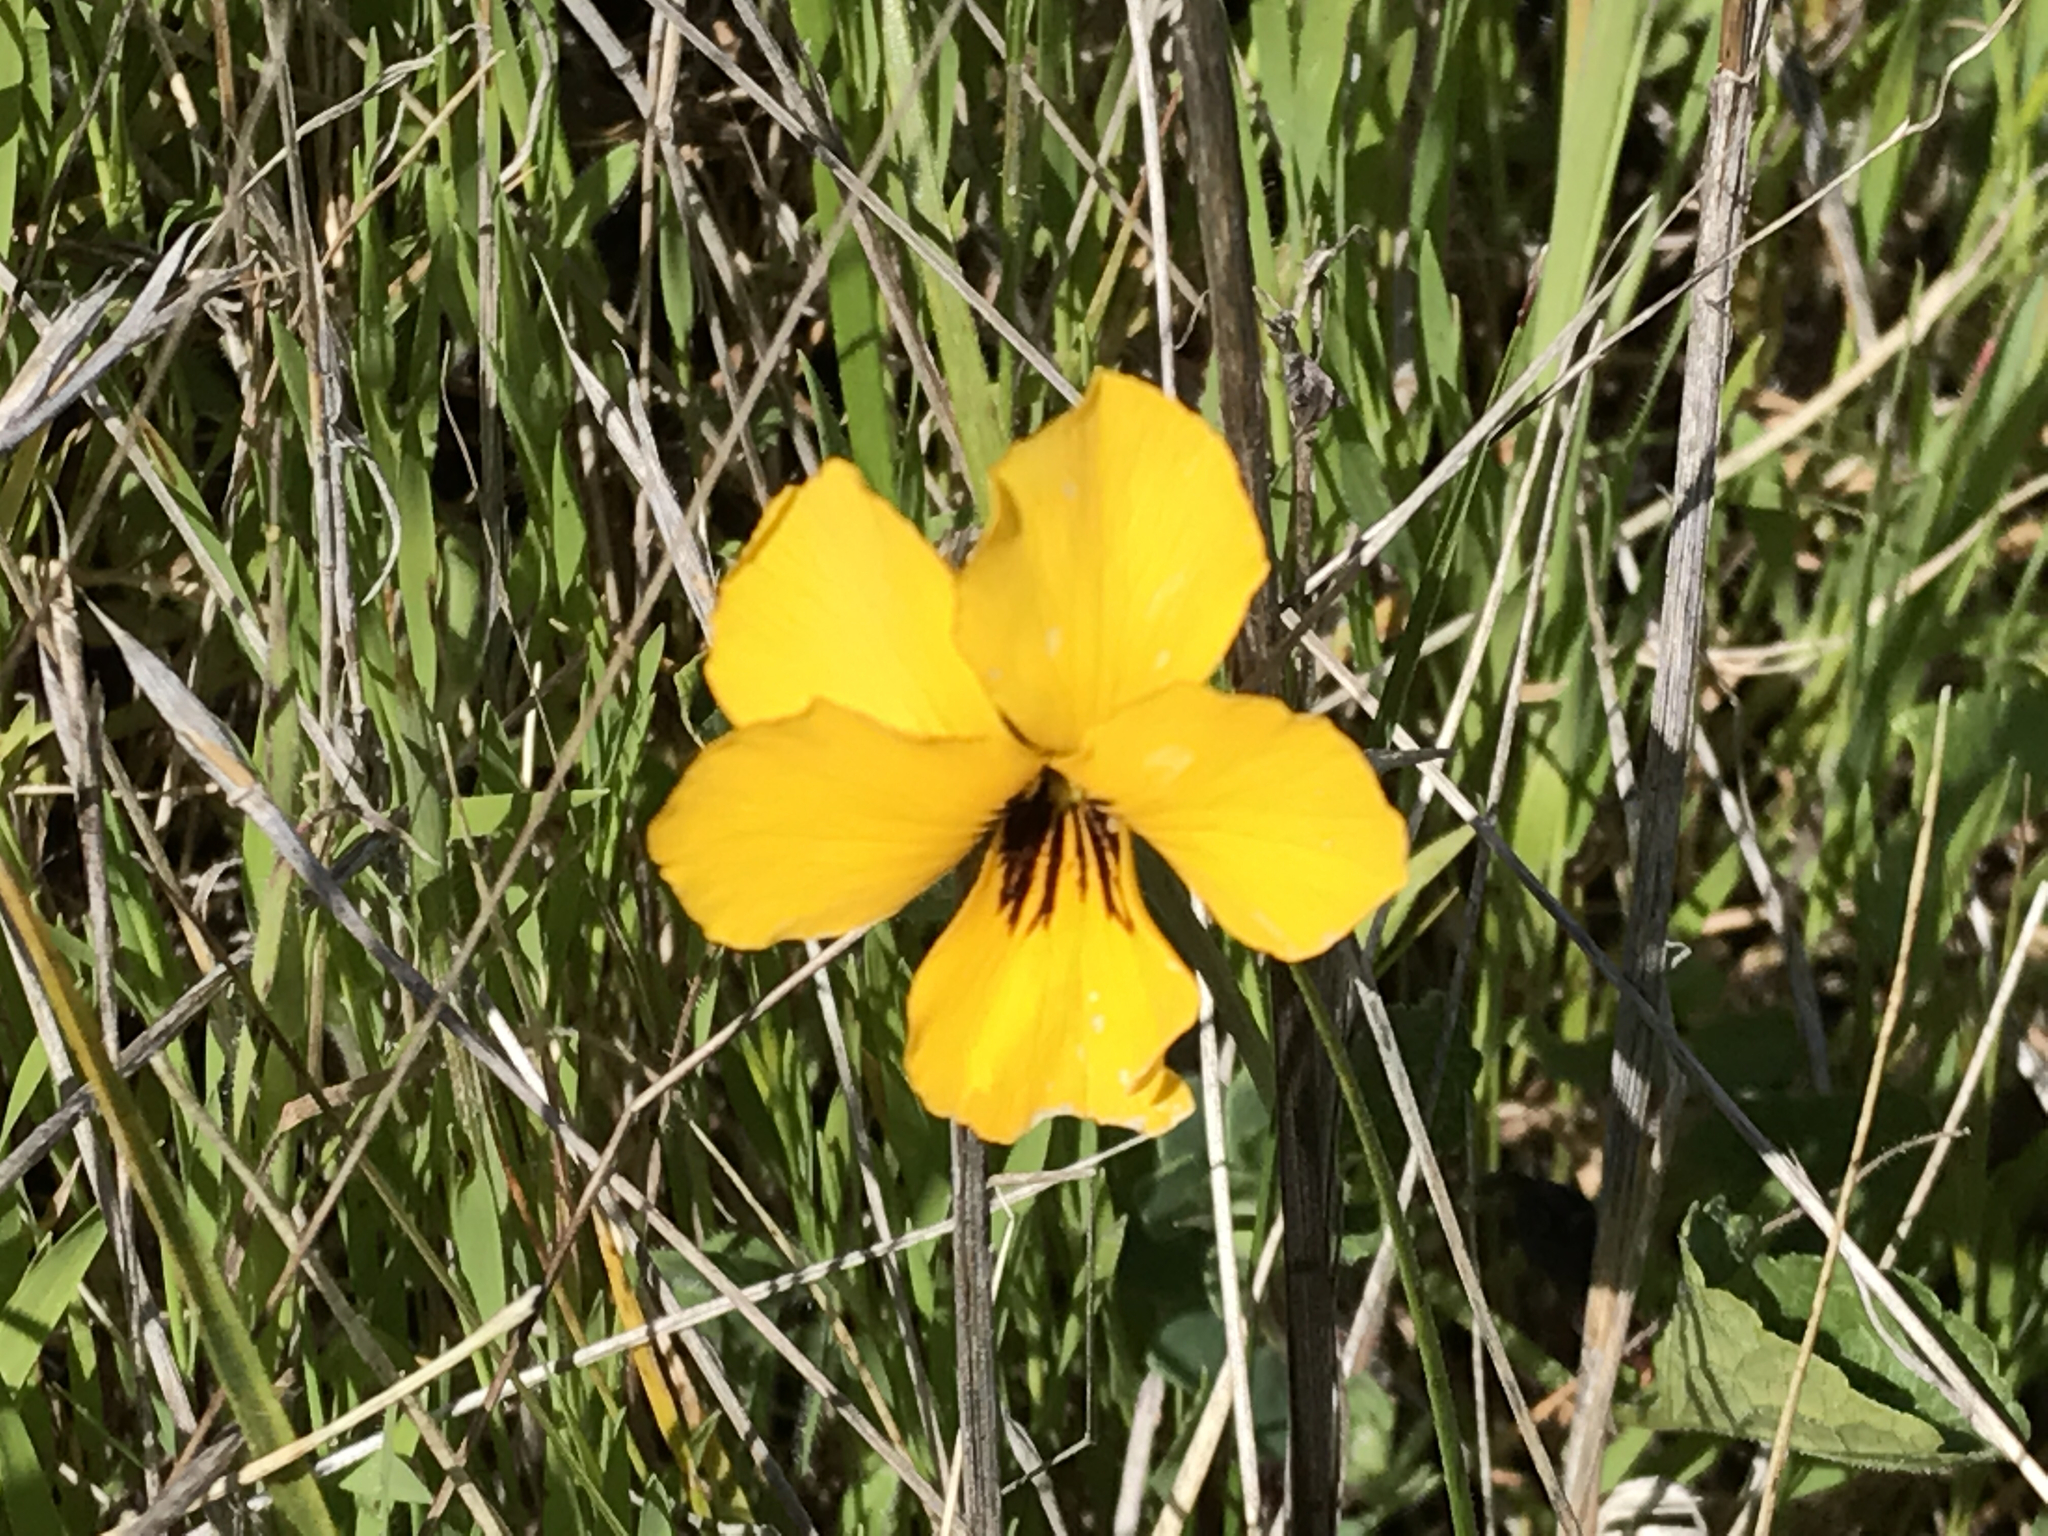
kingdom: Plantae
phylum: Tracheophyta
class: Magnoliopsida
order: Malpighiales
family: Violaceae
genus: Viola
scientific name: Viola pedunculata
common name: California golden violet
